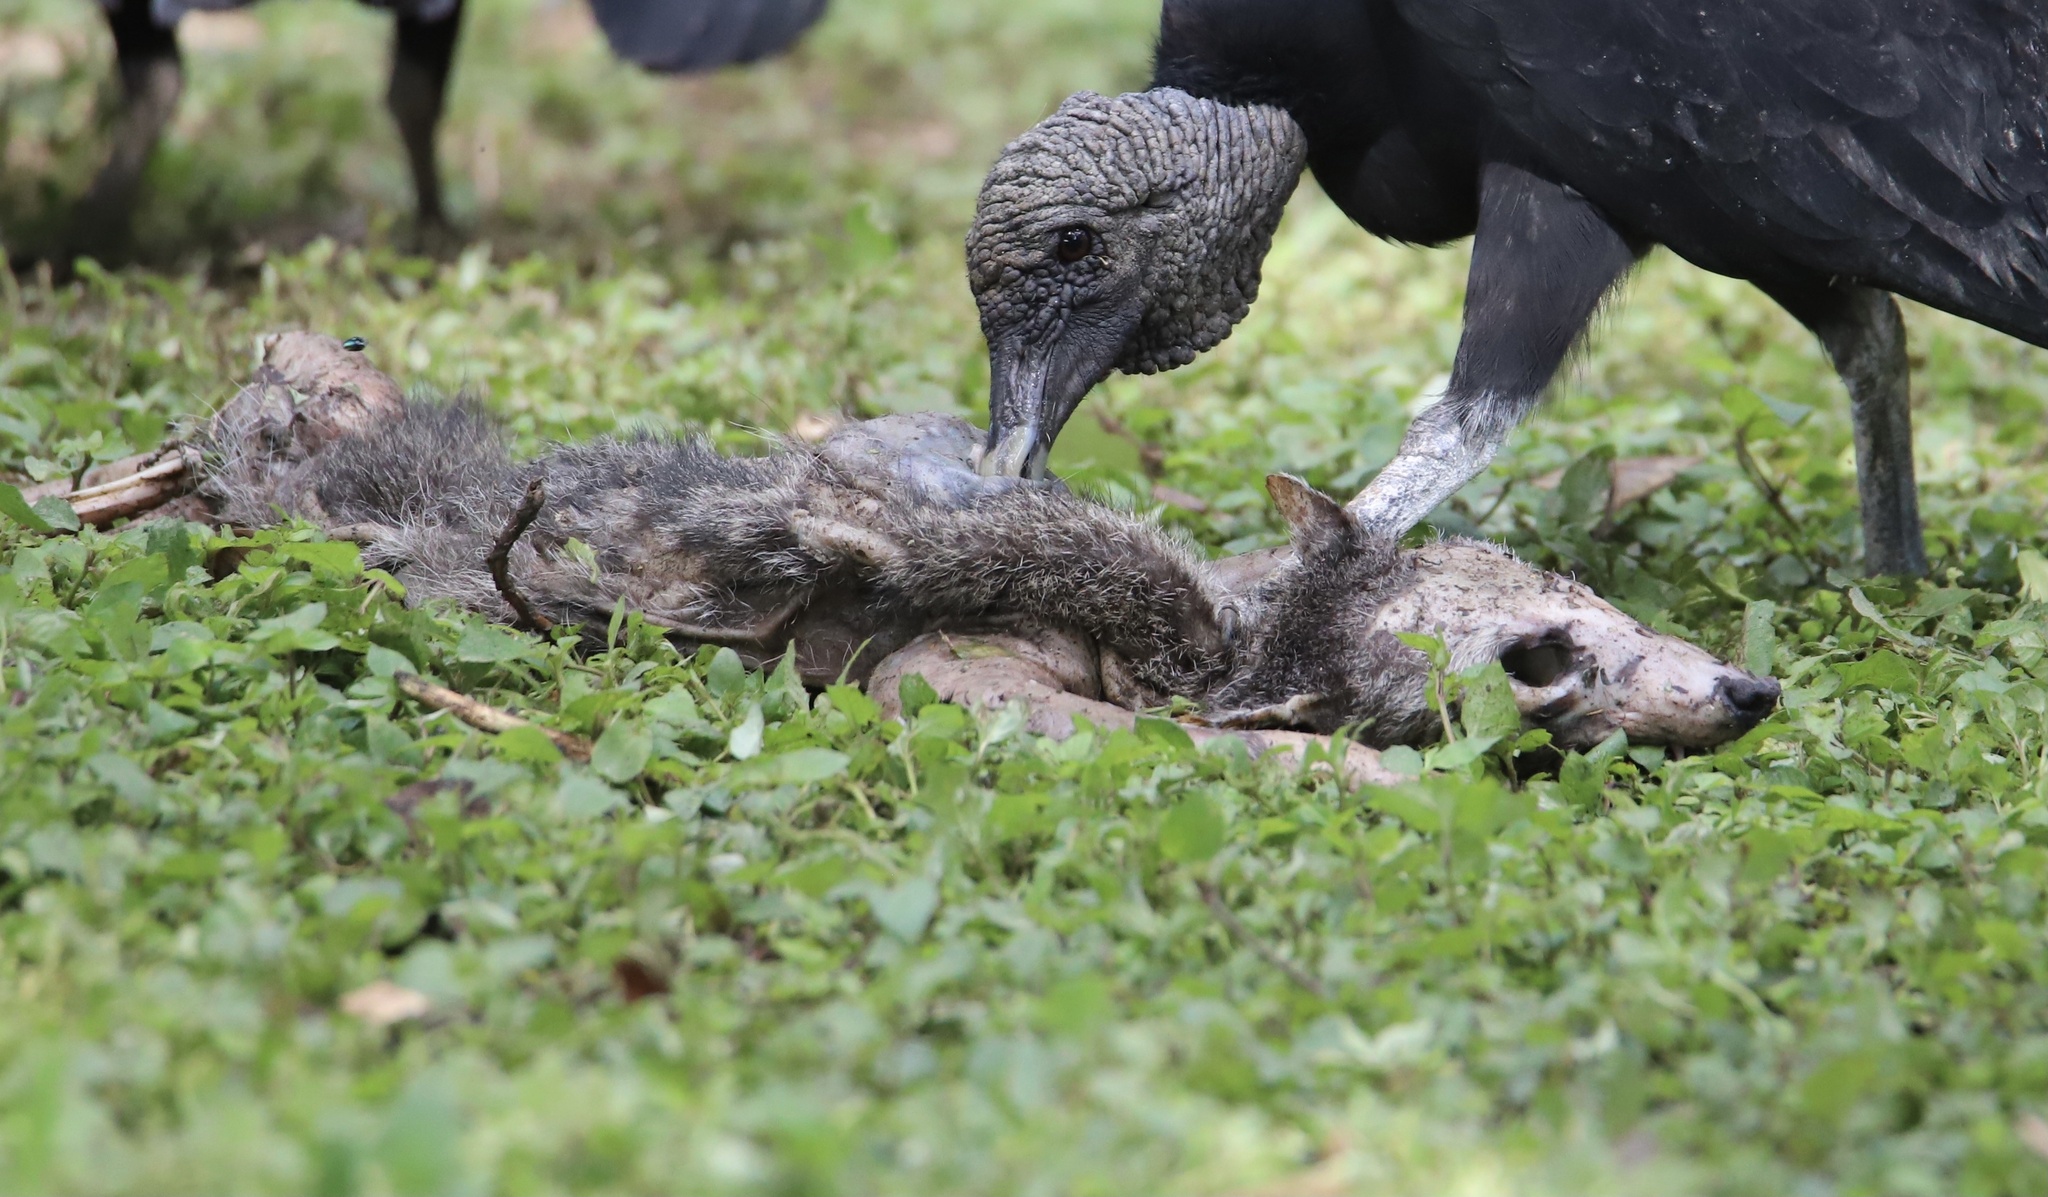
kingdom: Animalia
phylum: Chordata
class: Mammalia
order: Carnivora
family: Procyonidae
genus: Procyon
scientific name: Procyon lotor
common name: Raccoon
